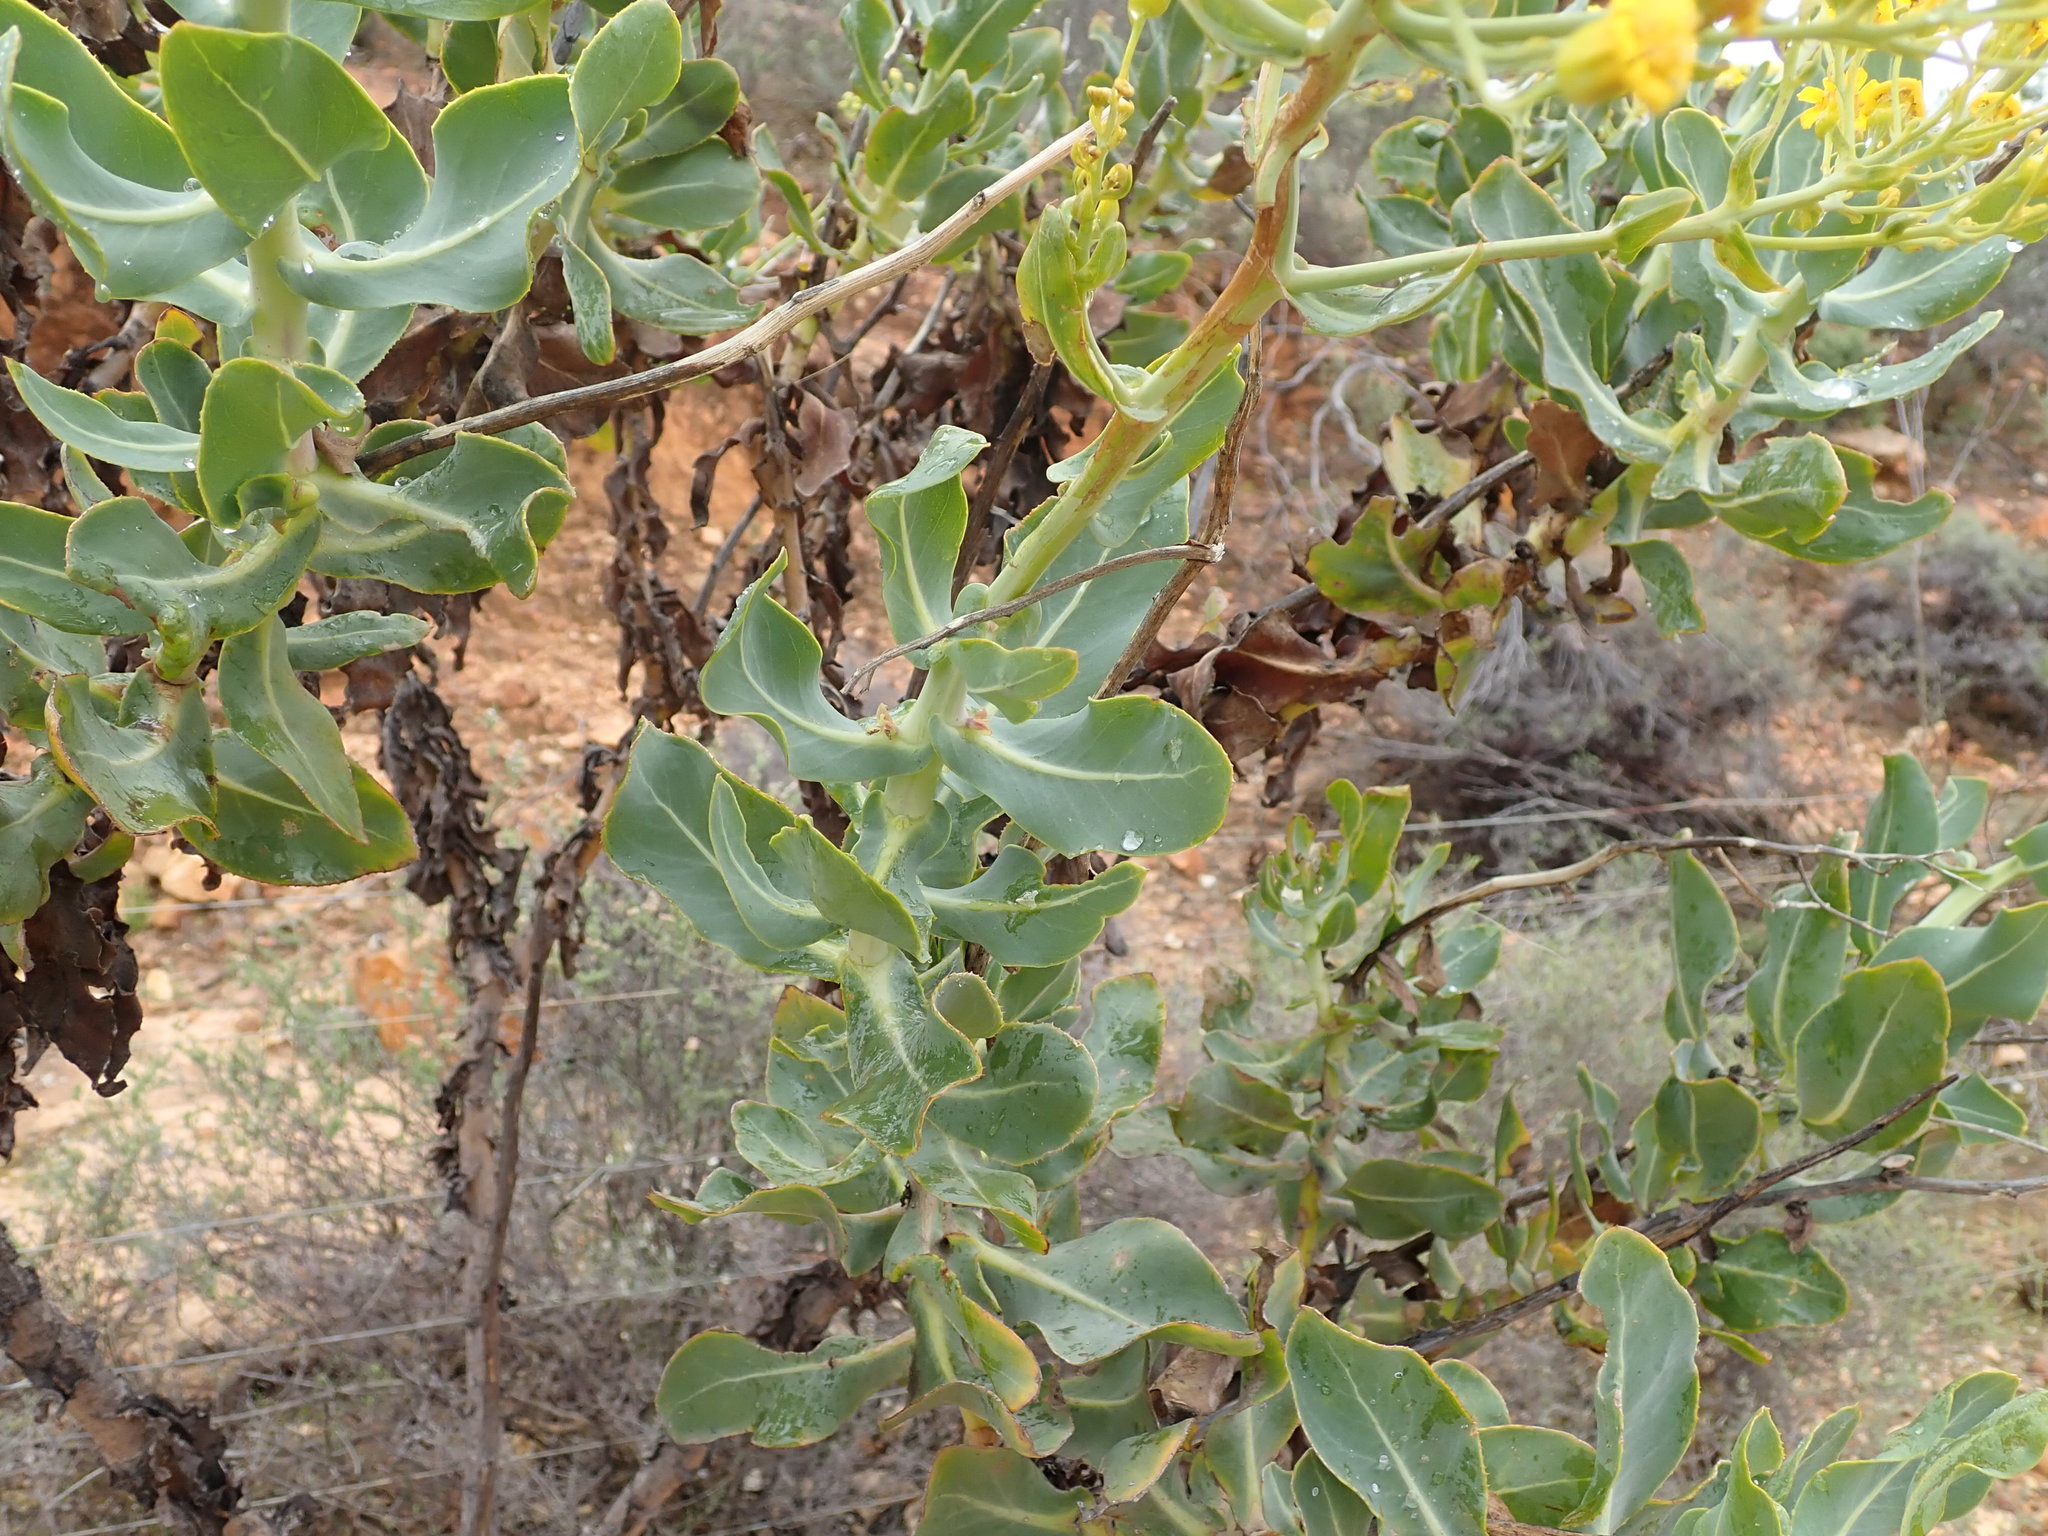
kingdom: Plantae
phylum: Tracheophyta
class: Magnoliopsida
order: Asterales
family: Asteraceae
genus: Othonna
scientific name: Othonna parviflora
